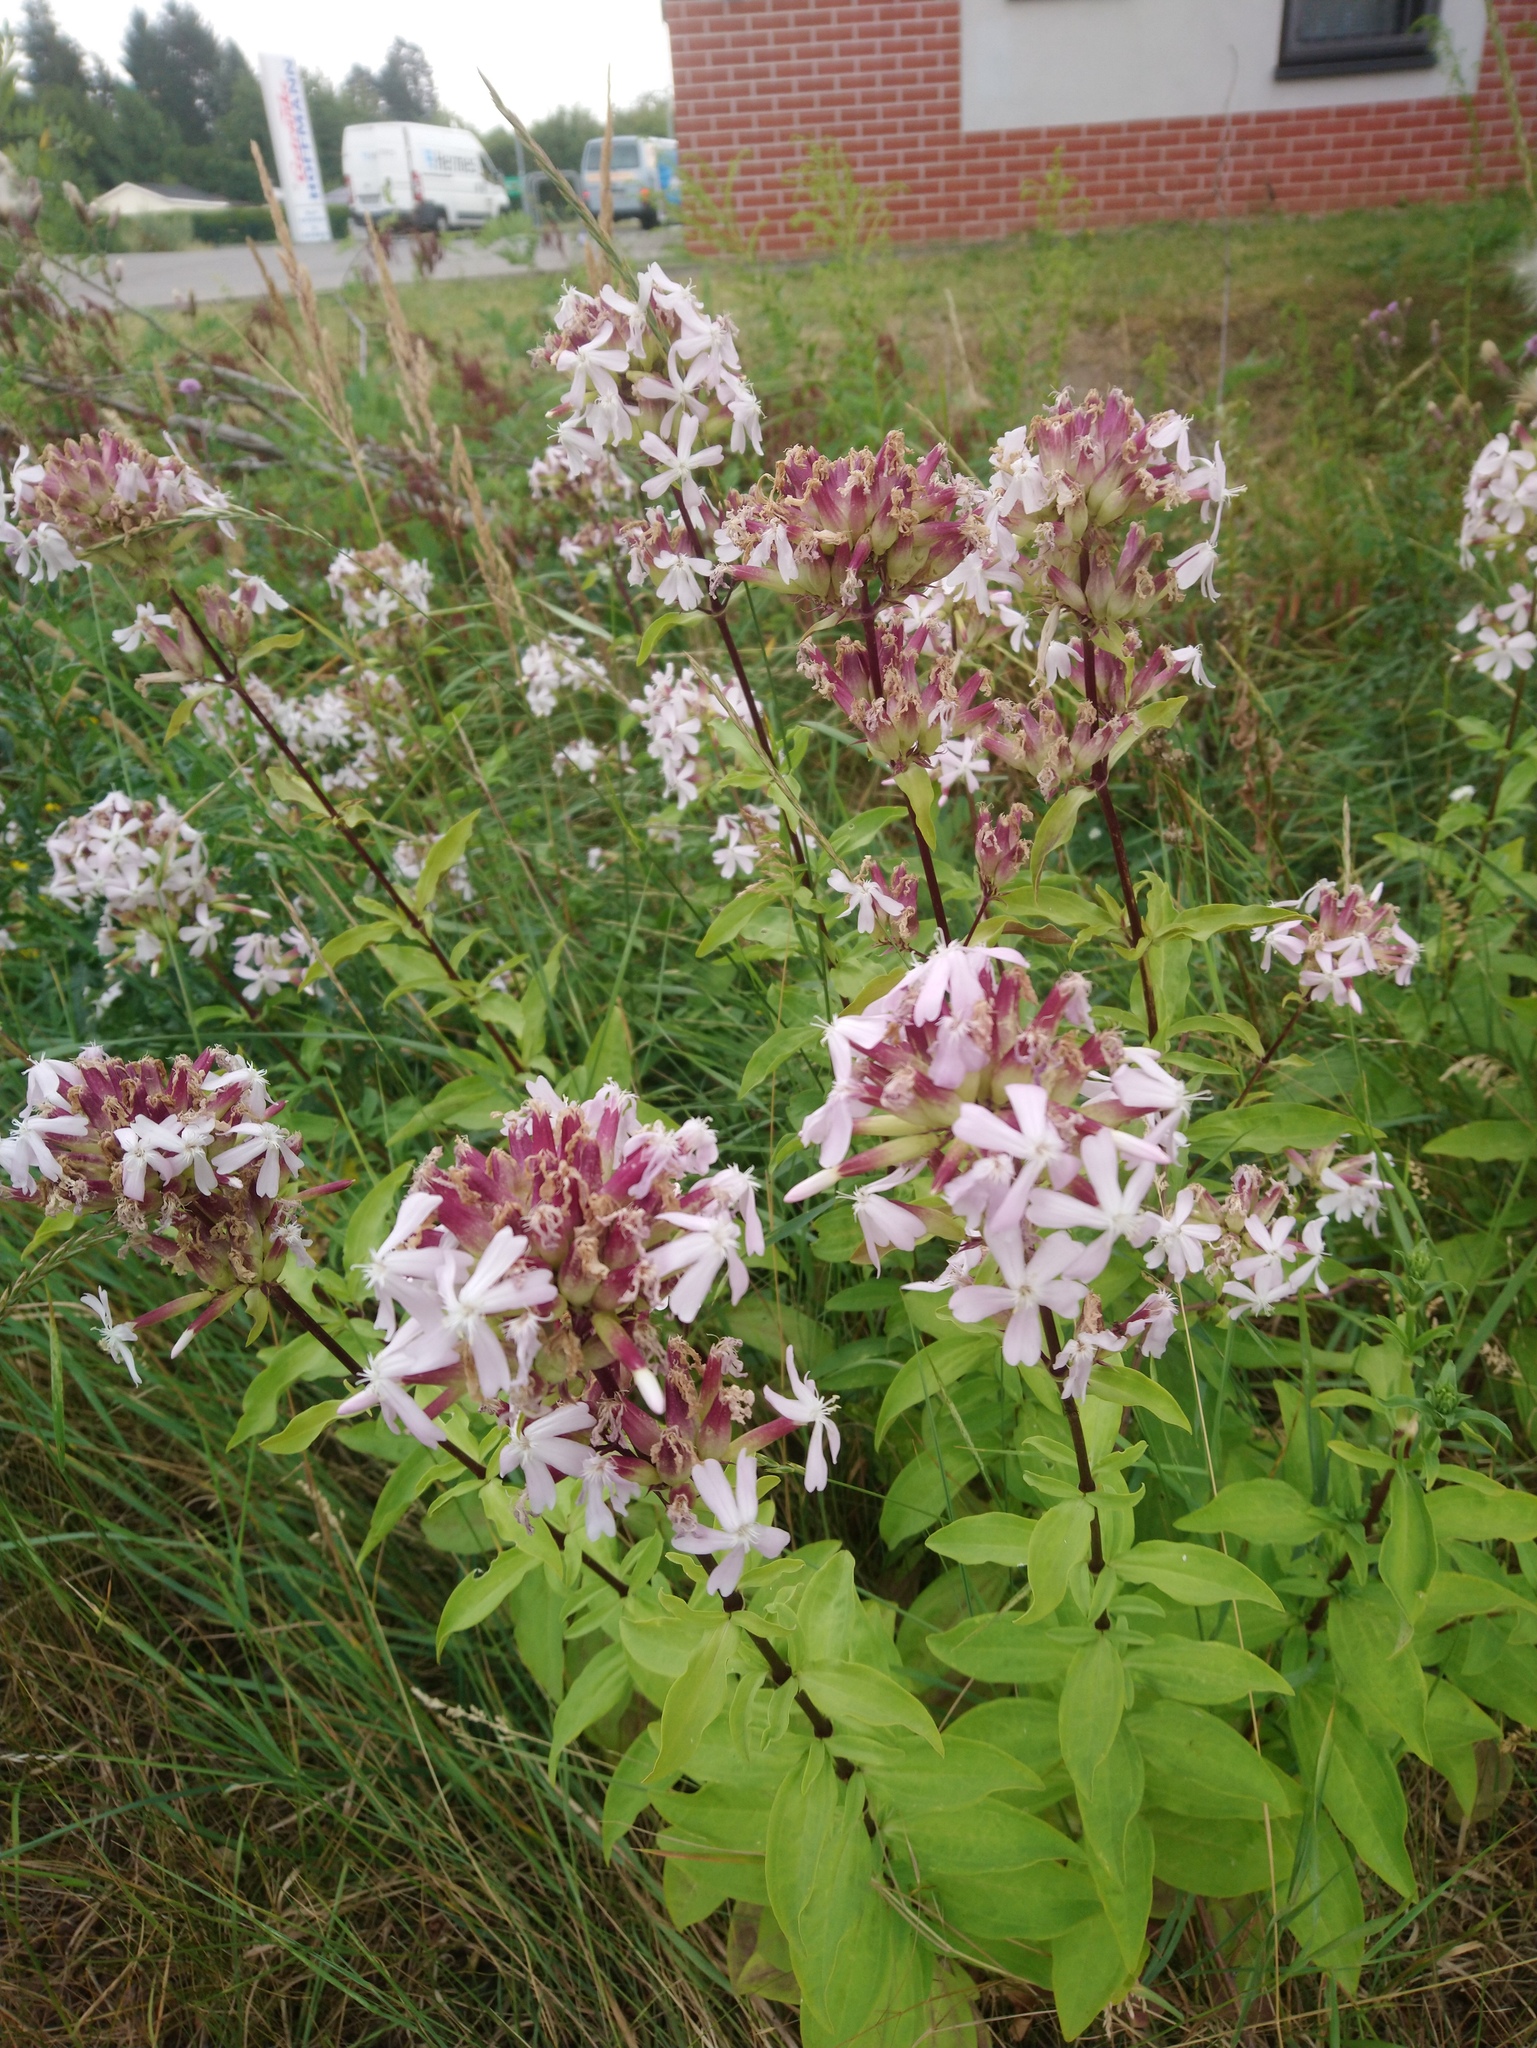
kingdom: Plantae
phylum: Tracheophyta
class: Magnoliopsida
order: Caryophyllales
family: Caryophyllaceae
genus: Saponaria
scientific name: Saponaria officinalis
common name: Soapwort
